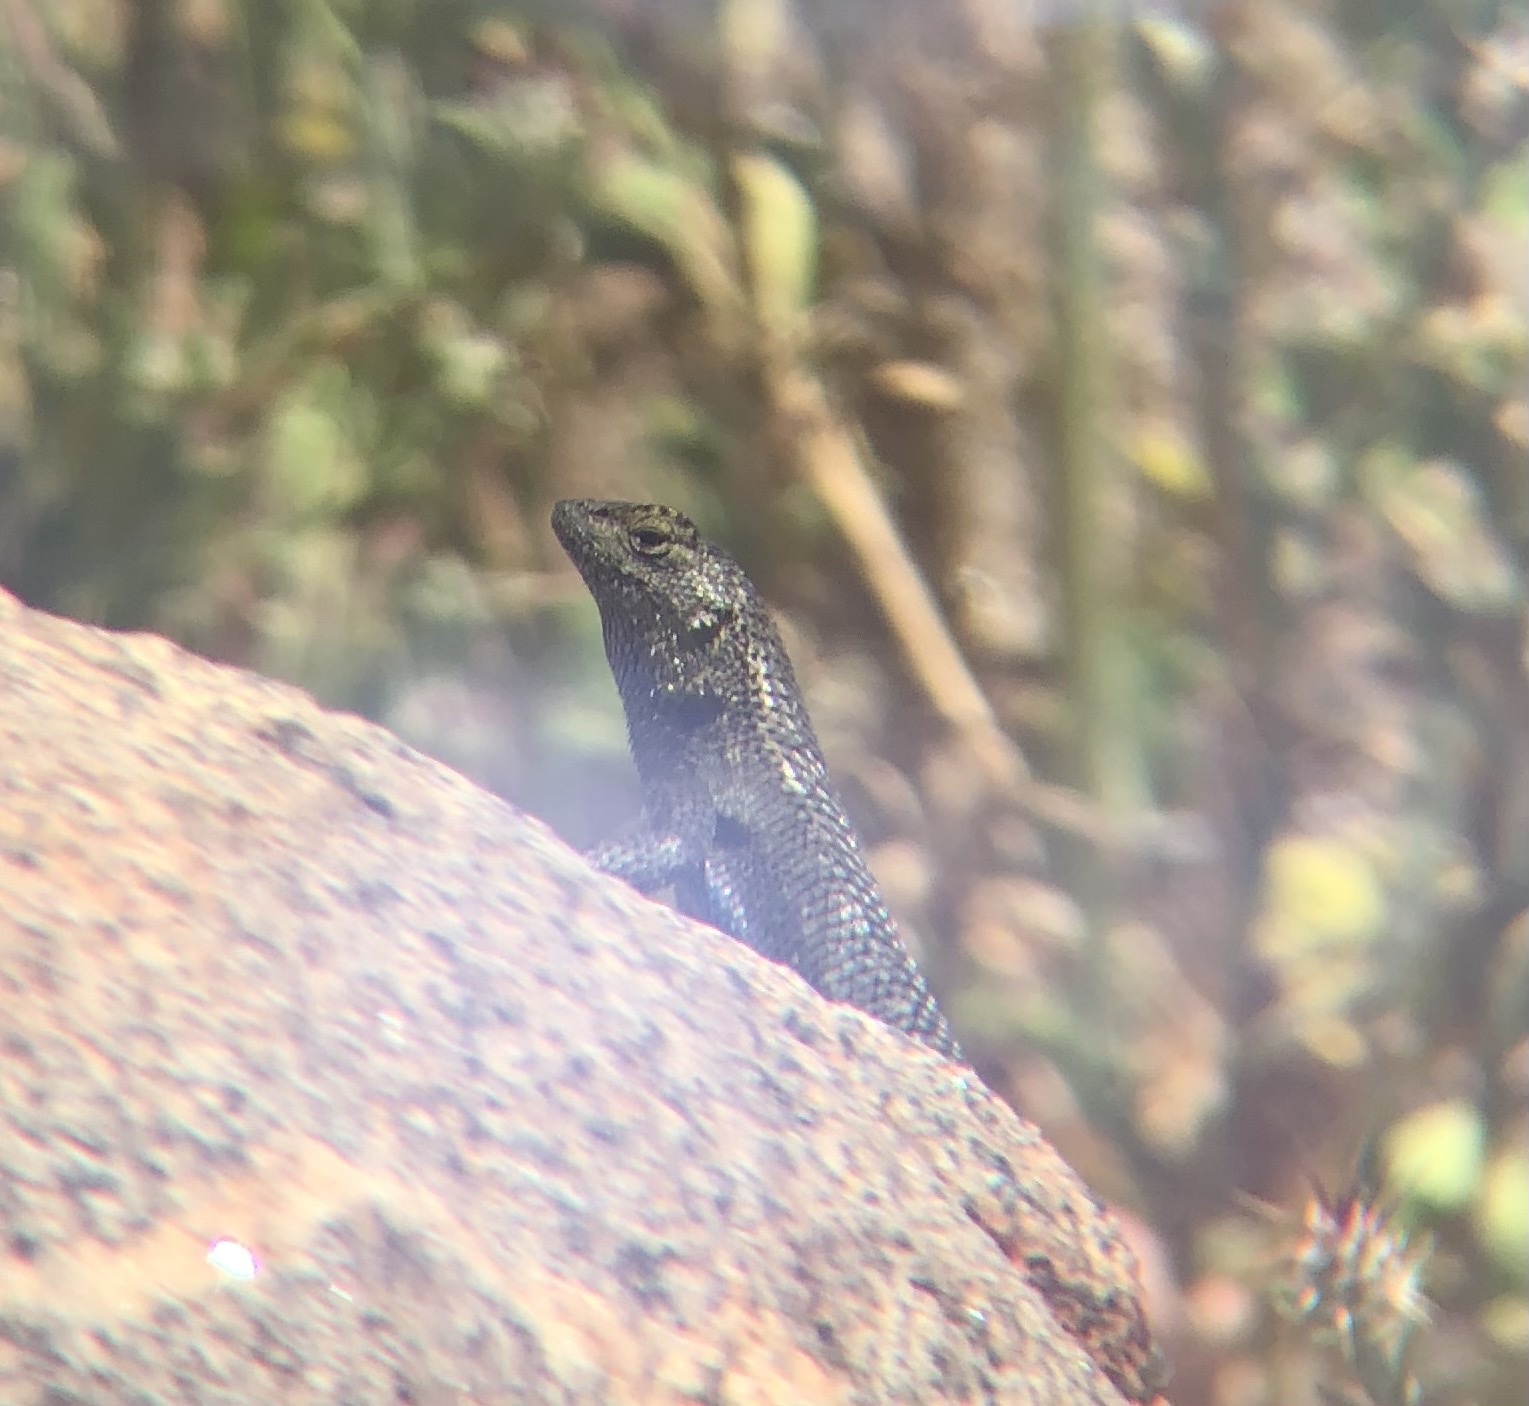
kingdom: Animalia
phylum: Chordata
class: Squamata
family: Phrynosomatidae
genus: Sceloporus
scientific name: Sceloporus occidentalis
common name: Western fence lizard
